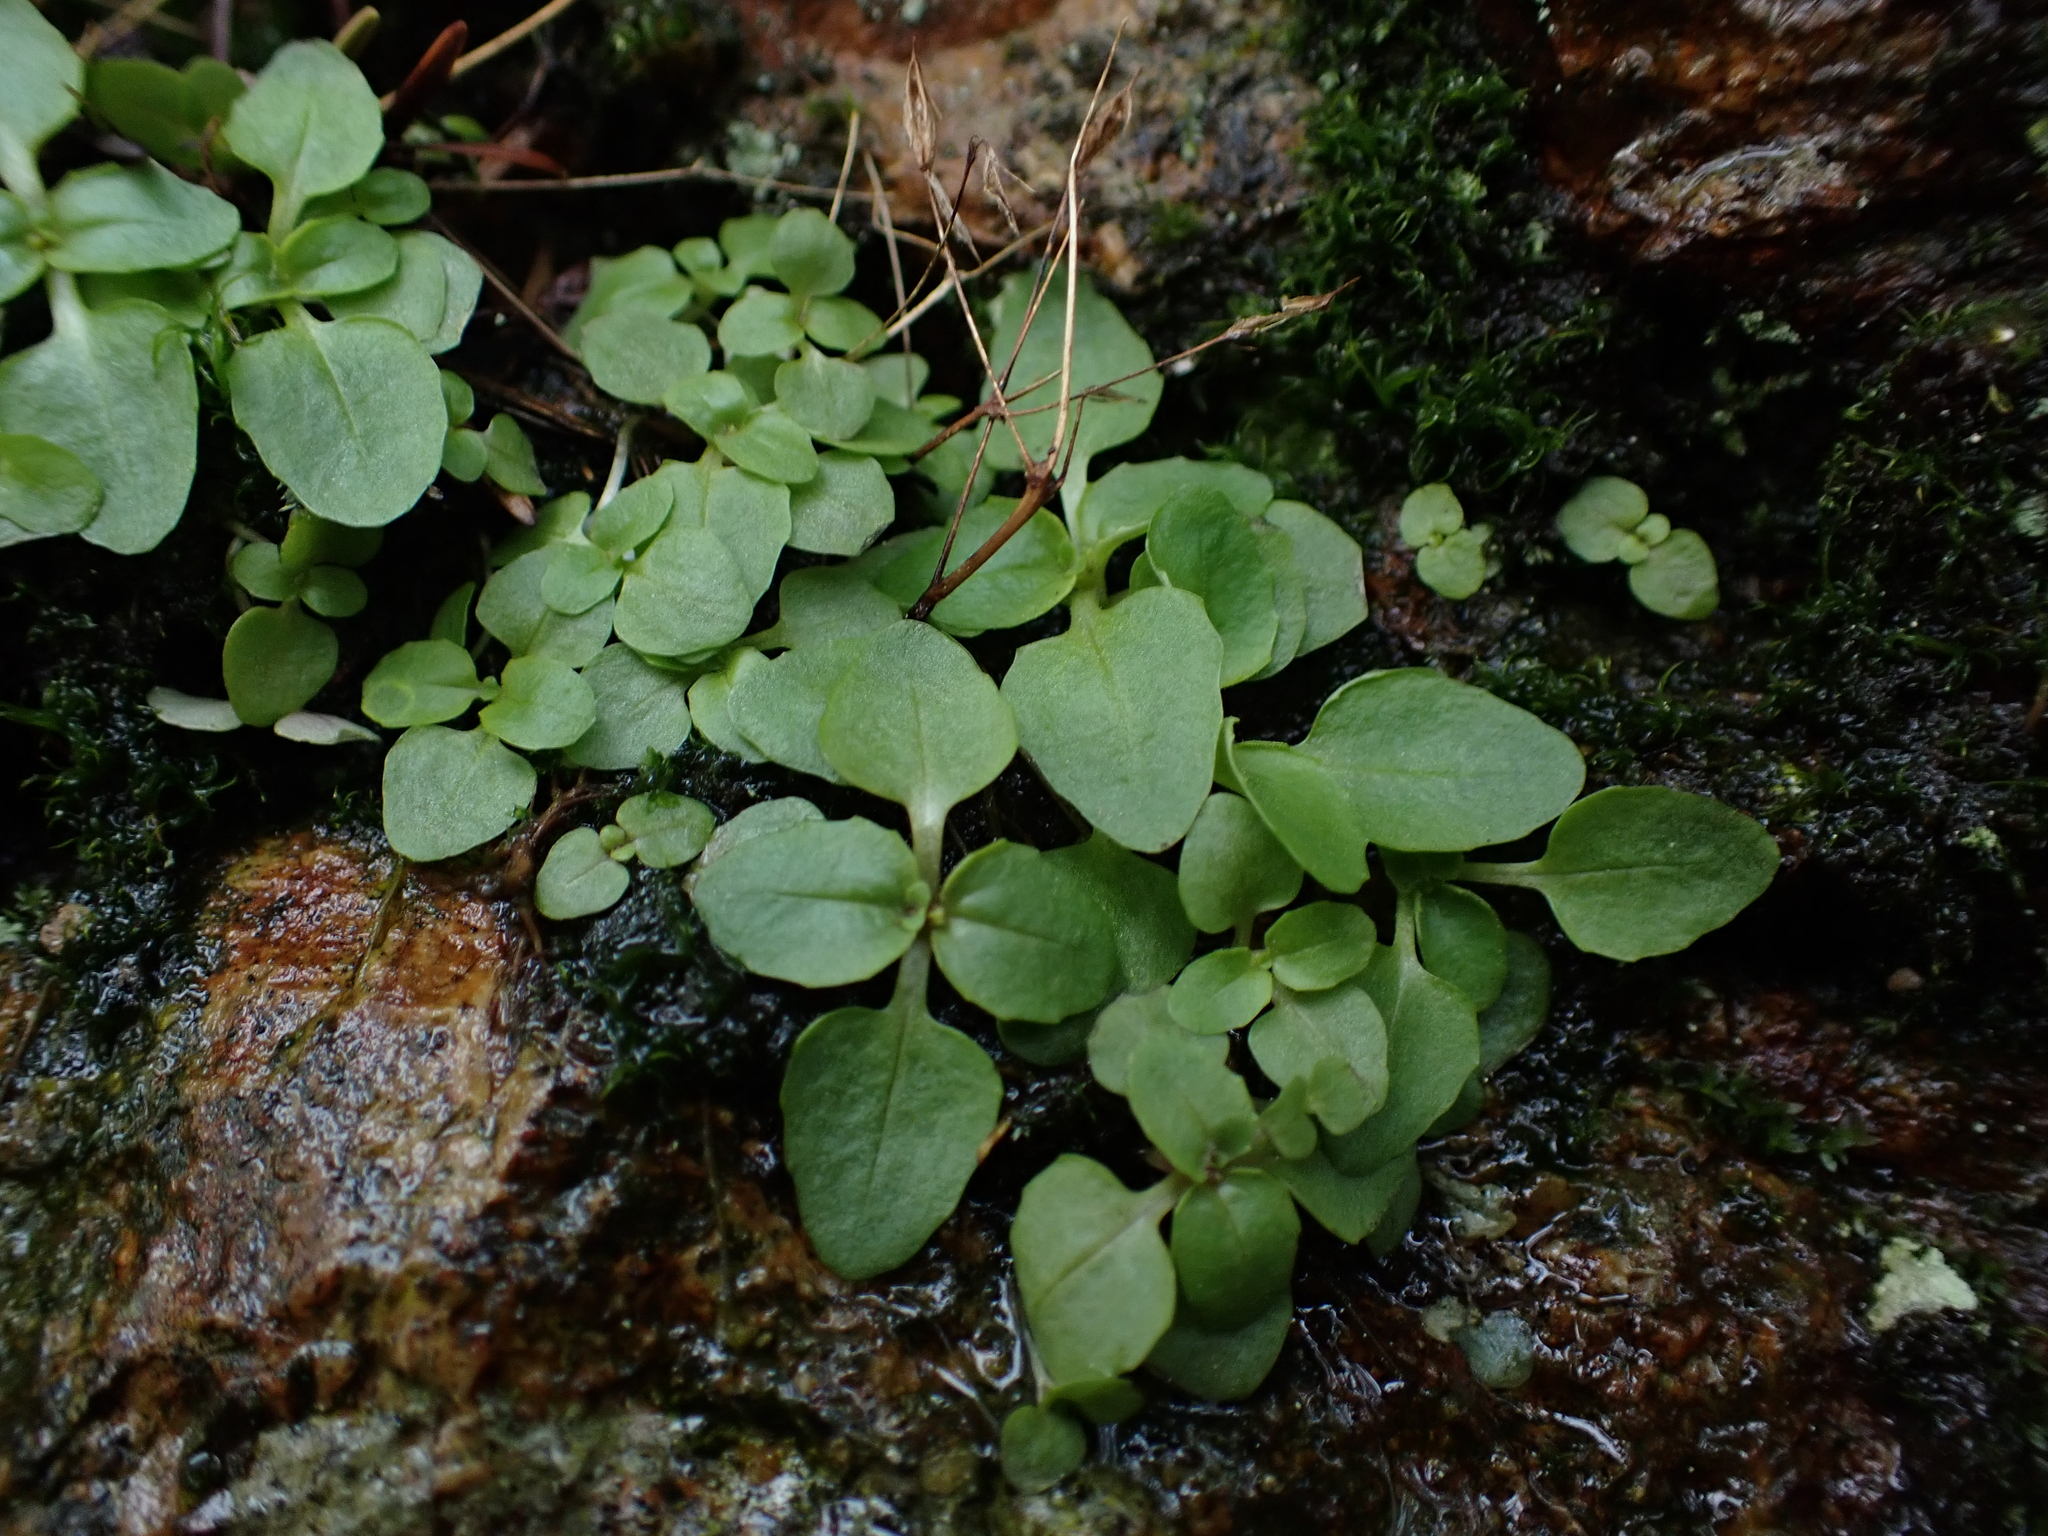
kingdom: Plantae
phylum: Tracheophyta
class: Magnoliopsida
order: Lamiales
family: Phrymaceae
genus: Erythranthe
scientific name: Erythranthe alsinoides
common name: Chickweed monkeyflower
